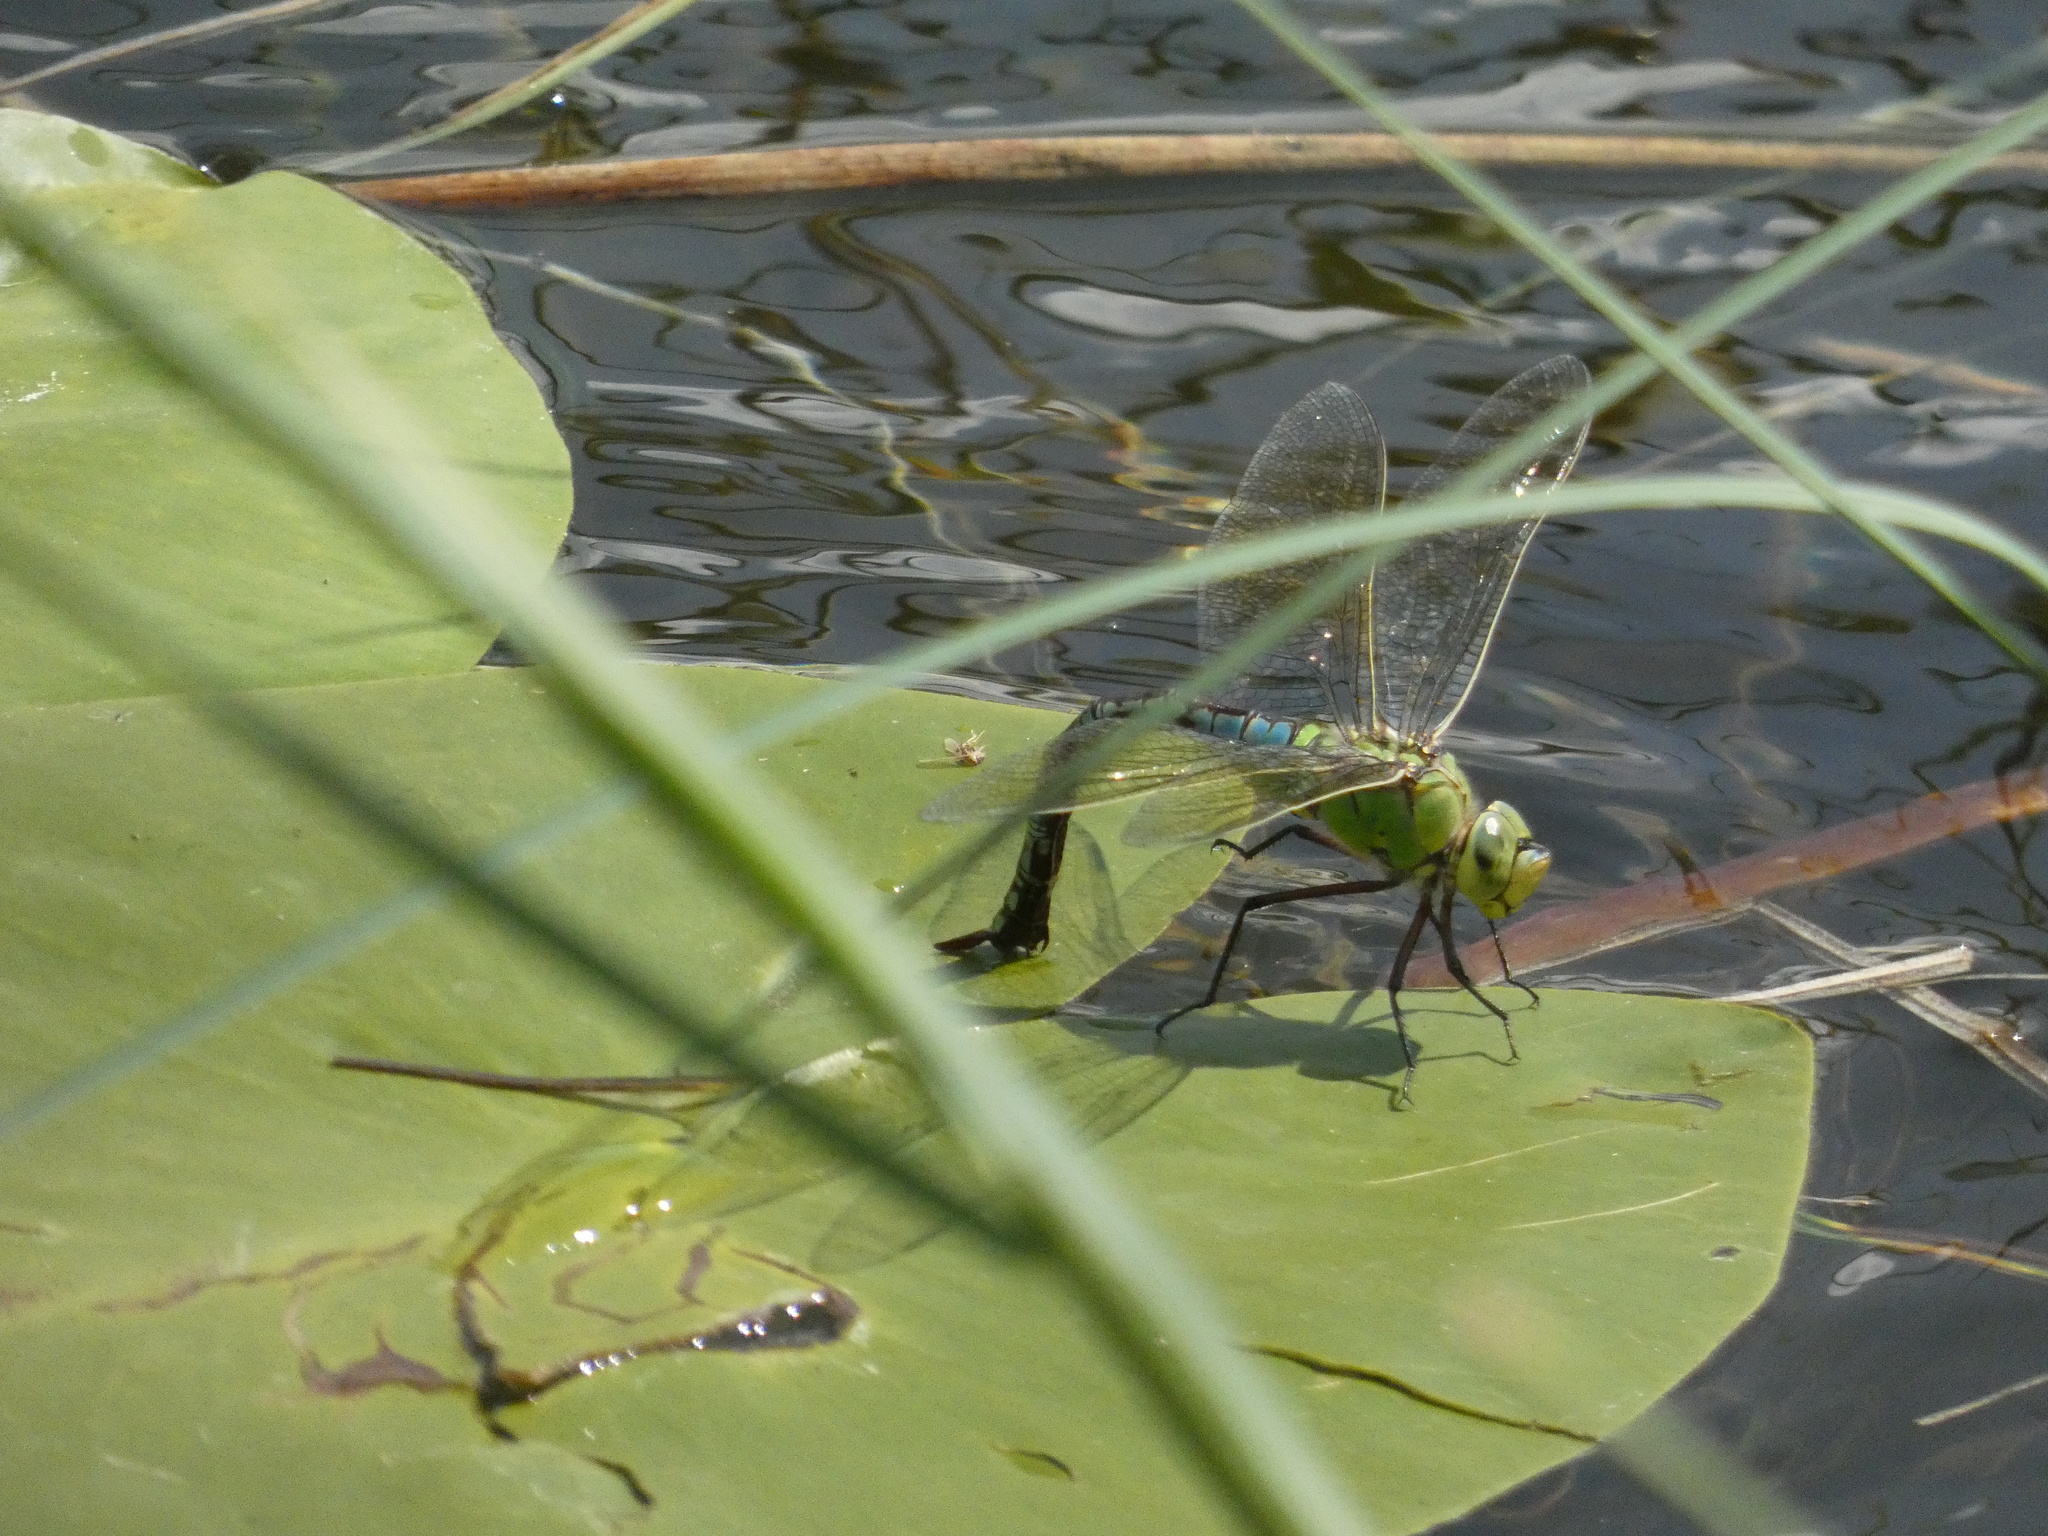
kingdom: Animalia
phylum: Arthropoda
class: Insecta
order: Odonata
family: Aeshnidae
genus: Anax
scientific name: Anax imperator
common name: Emperor dragonfly
